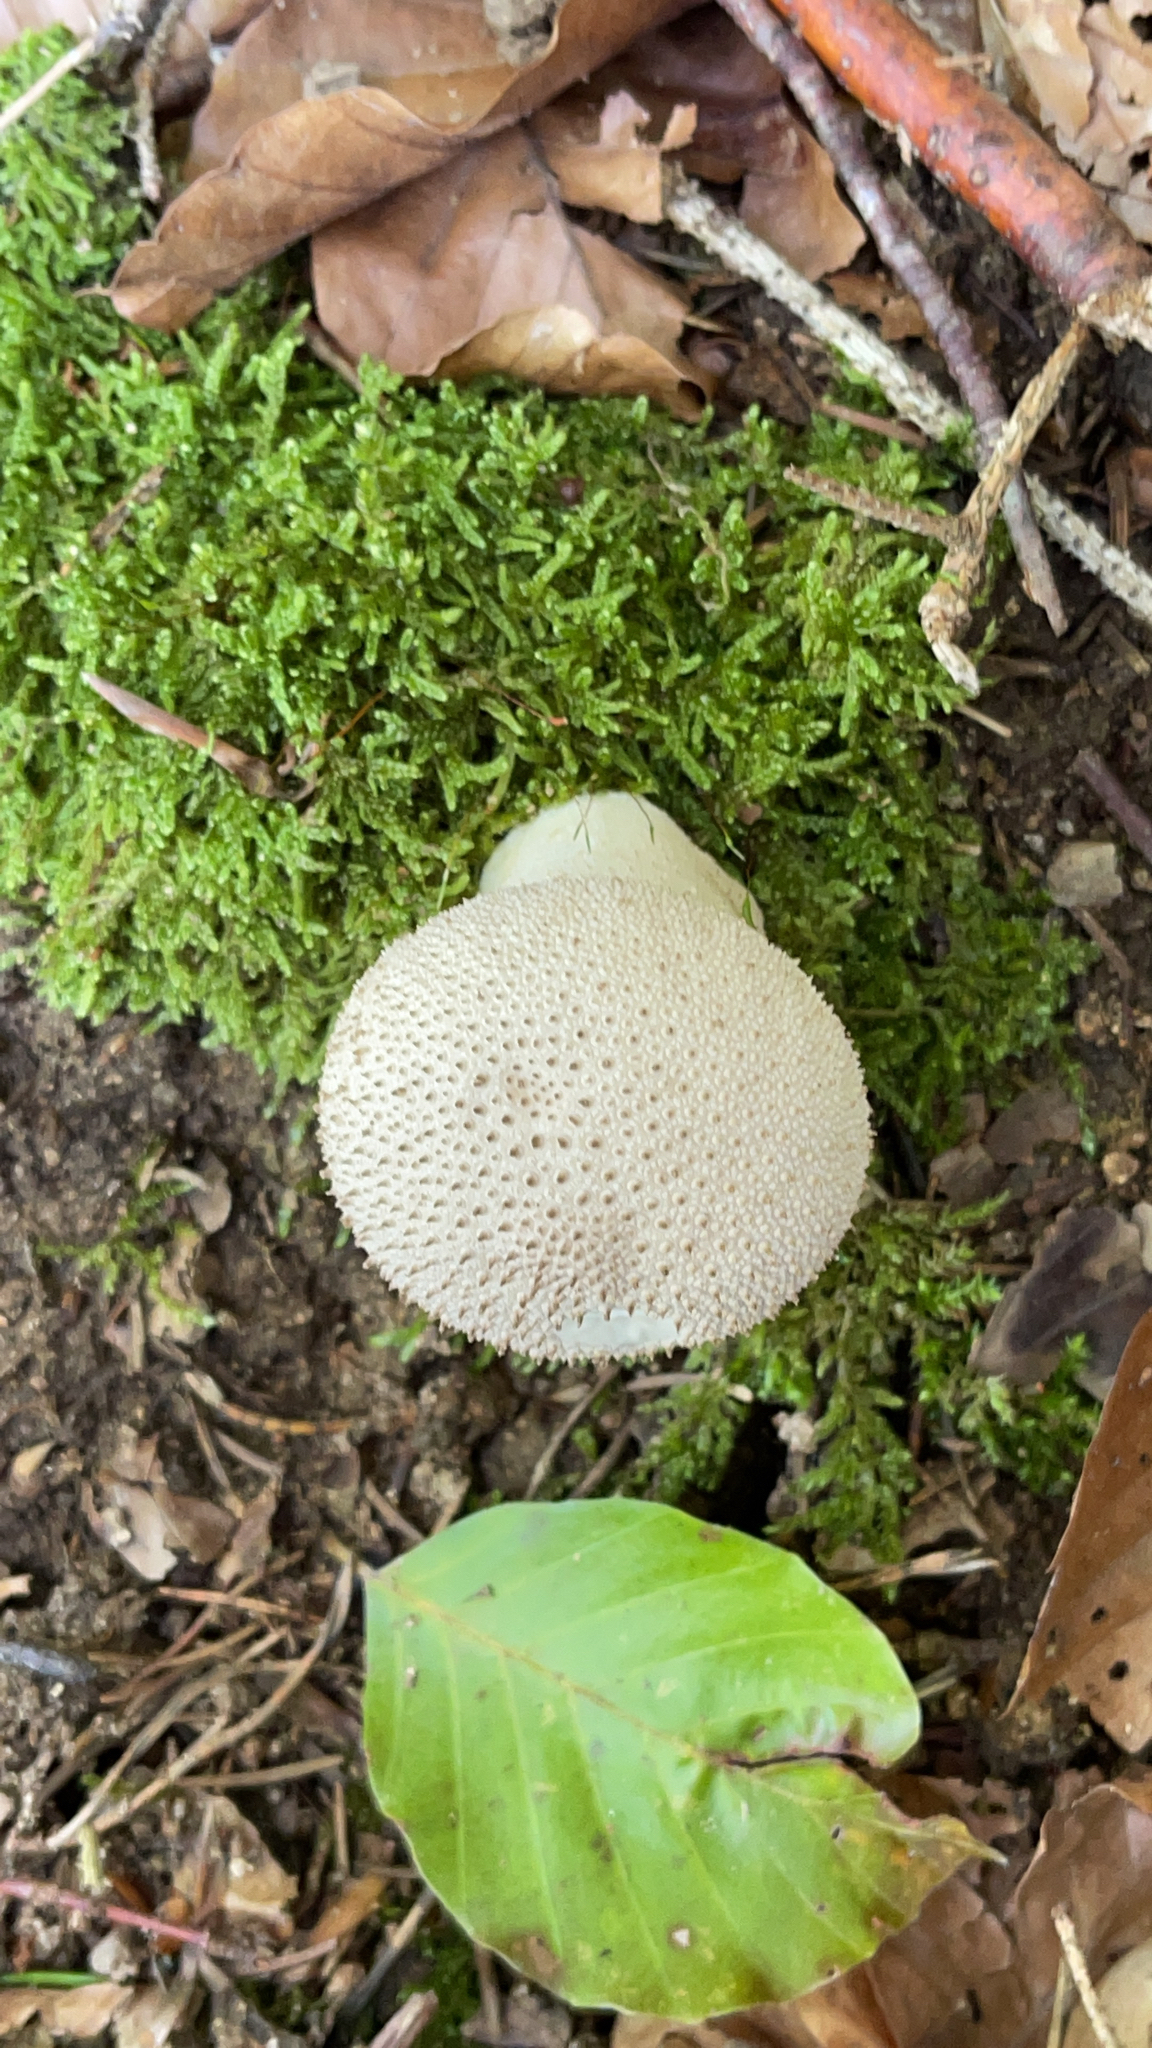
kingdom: Fungi
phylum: Basidiomycota
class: Agaricomycetes
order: Agaricales
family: Lycoperdaceae
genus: Lycoperdon
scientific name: Lycoperdon perlatum
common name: Common puffball
